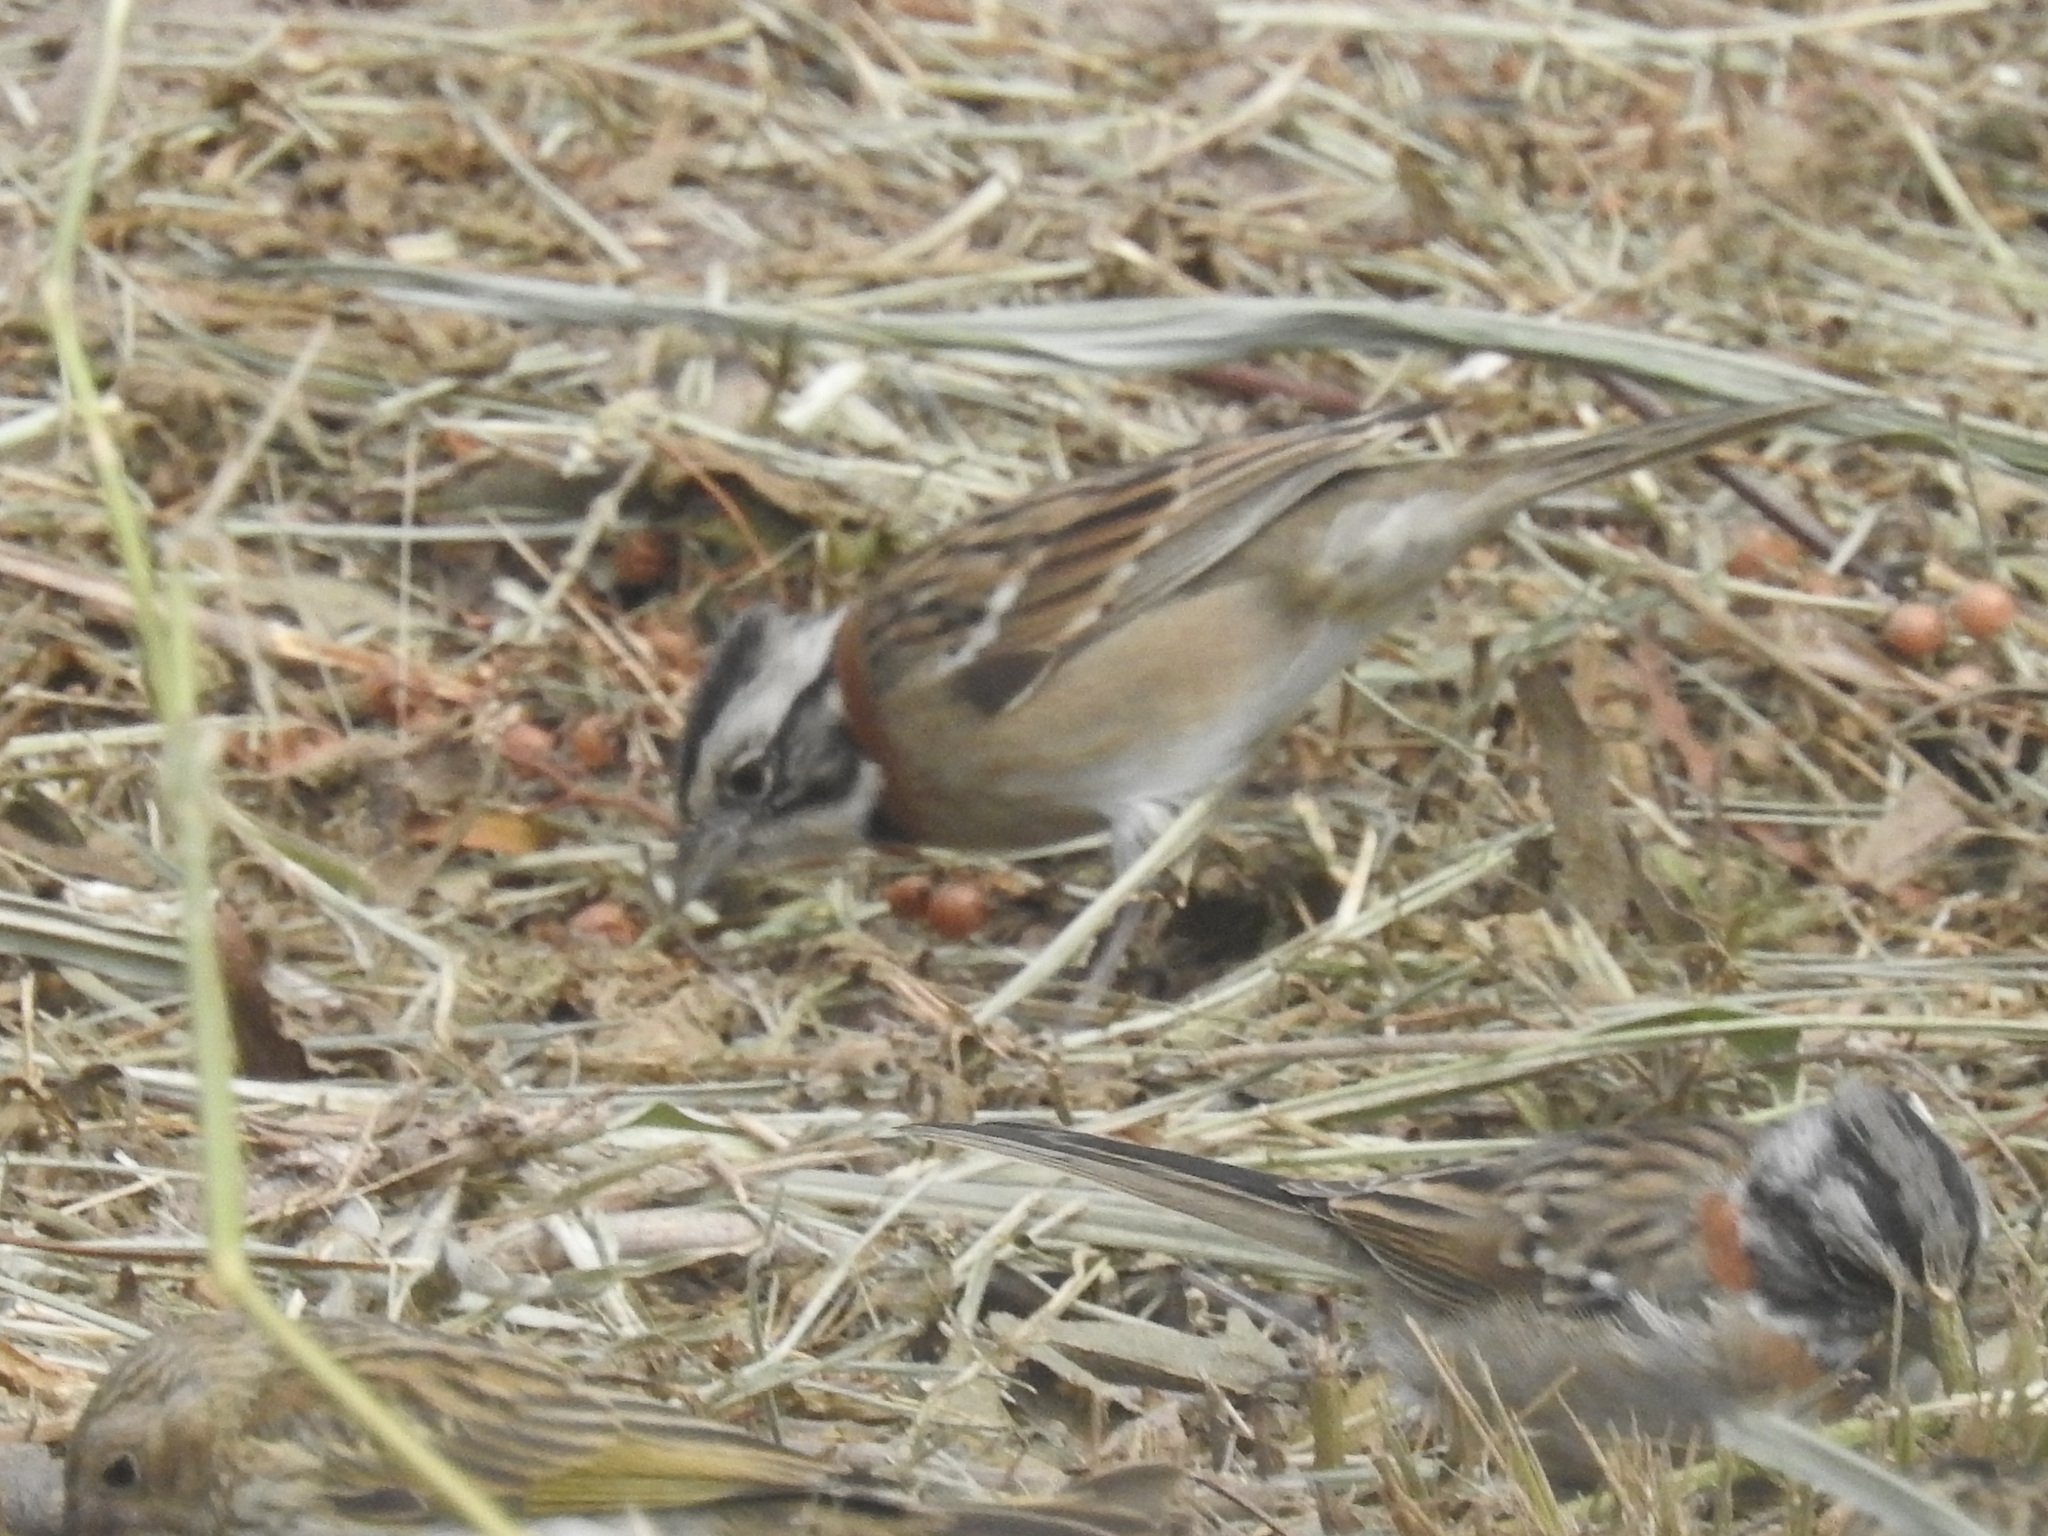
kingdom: Animalia
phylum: Chordata
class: Aves
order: Passeriformes
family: Passerellidae
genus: Zonotrichia
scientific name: Zonotrichia capensis
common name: Rufous-collared sparrow
